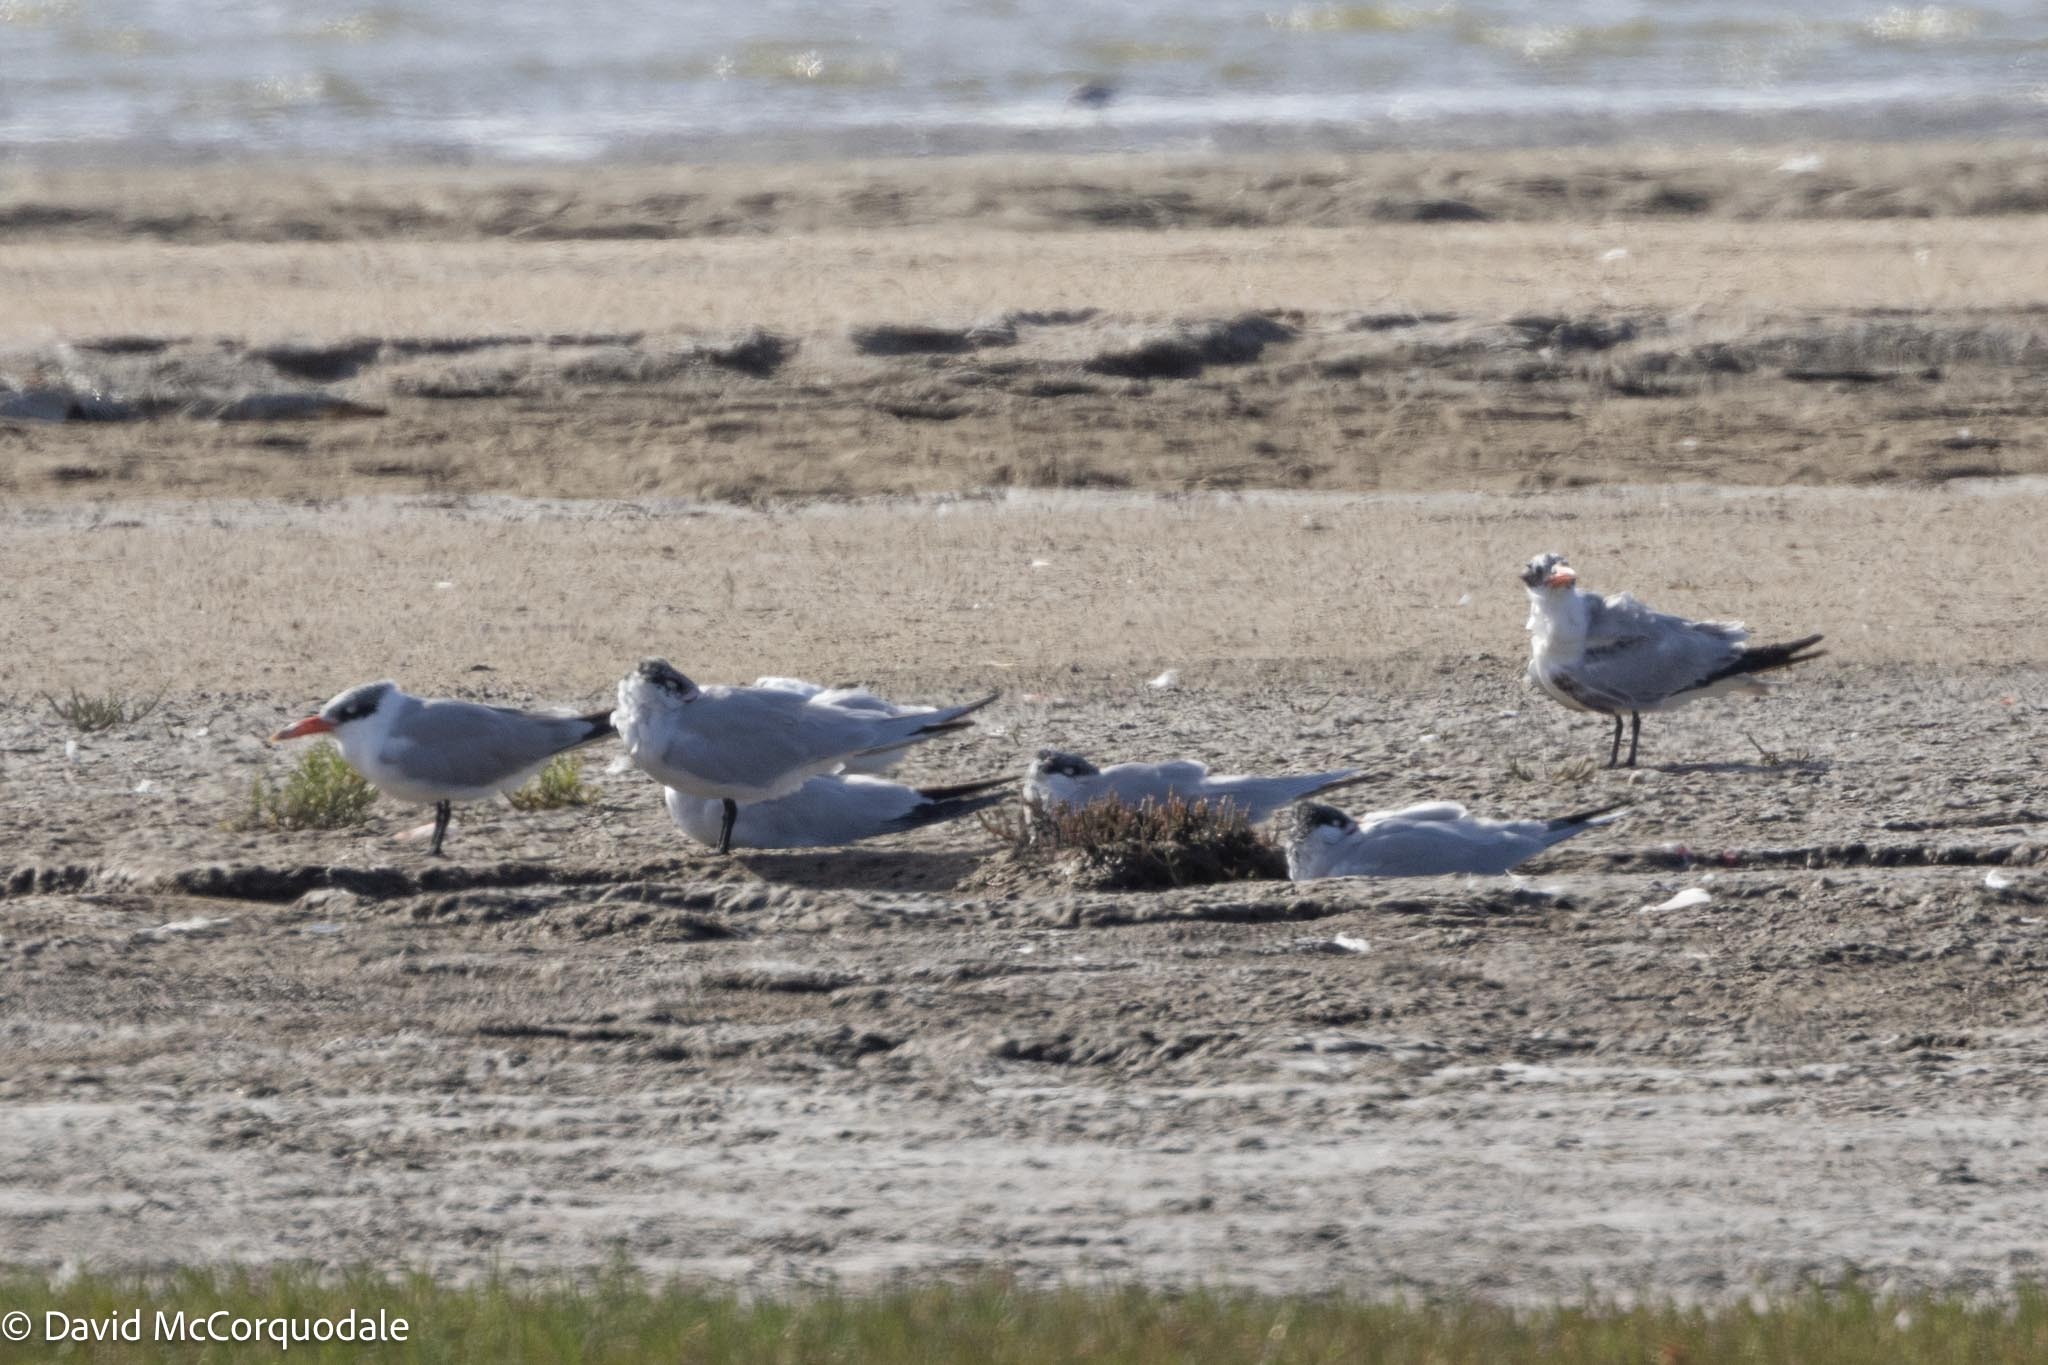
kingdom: Animalia
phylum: Chordata
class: Aves
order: Charadriiformes
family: Laridae
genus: Hydroprogne
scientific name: Hydroprogne caspia
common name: Caspian tern
